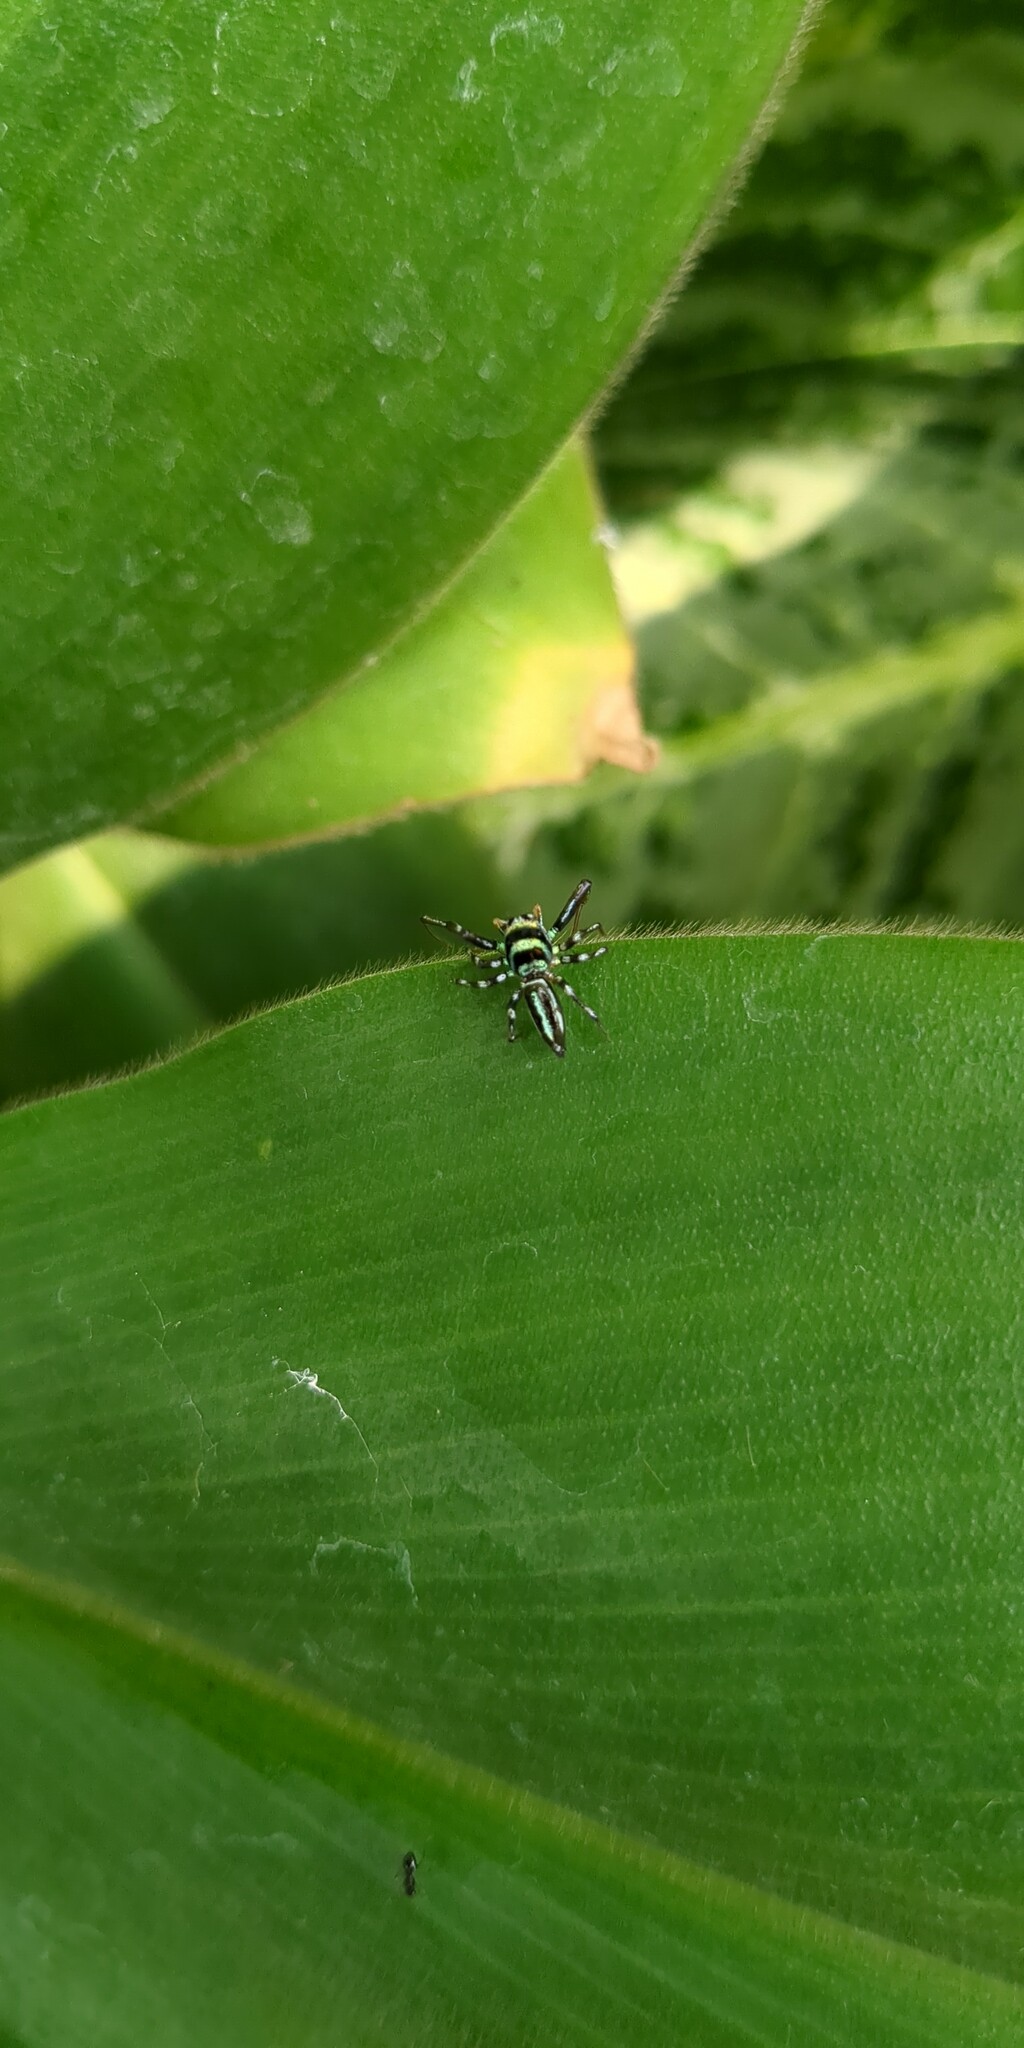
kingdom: Animalia
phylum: Arthropoda
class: Arachnida
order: Araneae
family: Salticidae
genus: Cosmophasis
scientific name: Cosmophasis micarioides
